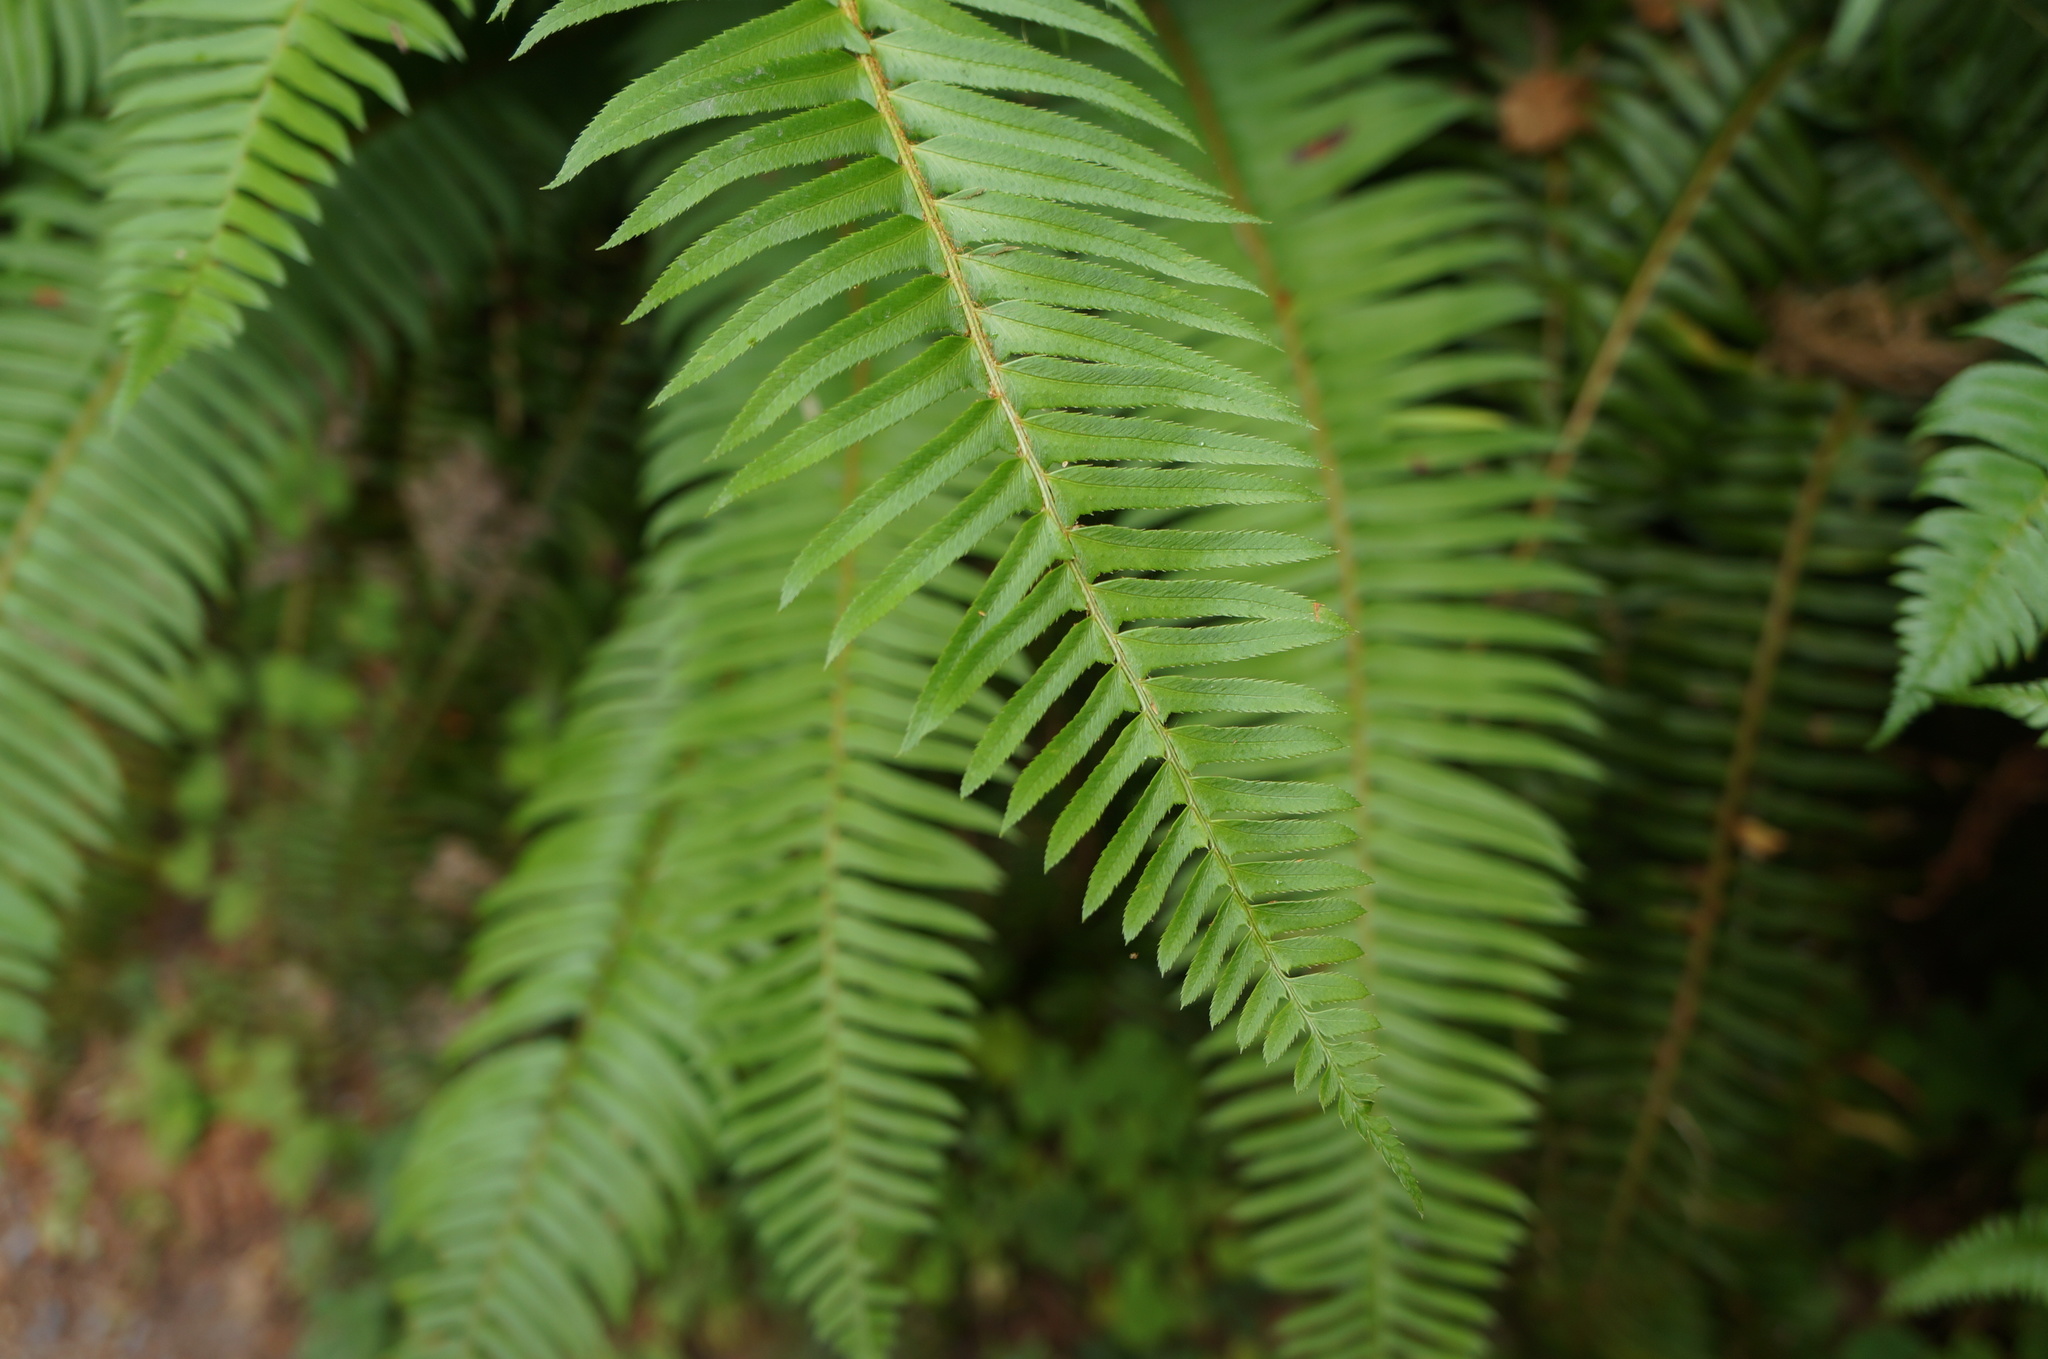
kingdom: Plantae
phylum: Tracheophyta
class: Polypodiopsida
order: Polypodiales
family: Dryopteridaceae
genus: Polystichum
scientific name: Polystichum munitum
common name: Western sword-fern
